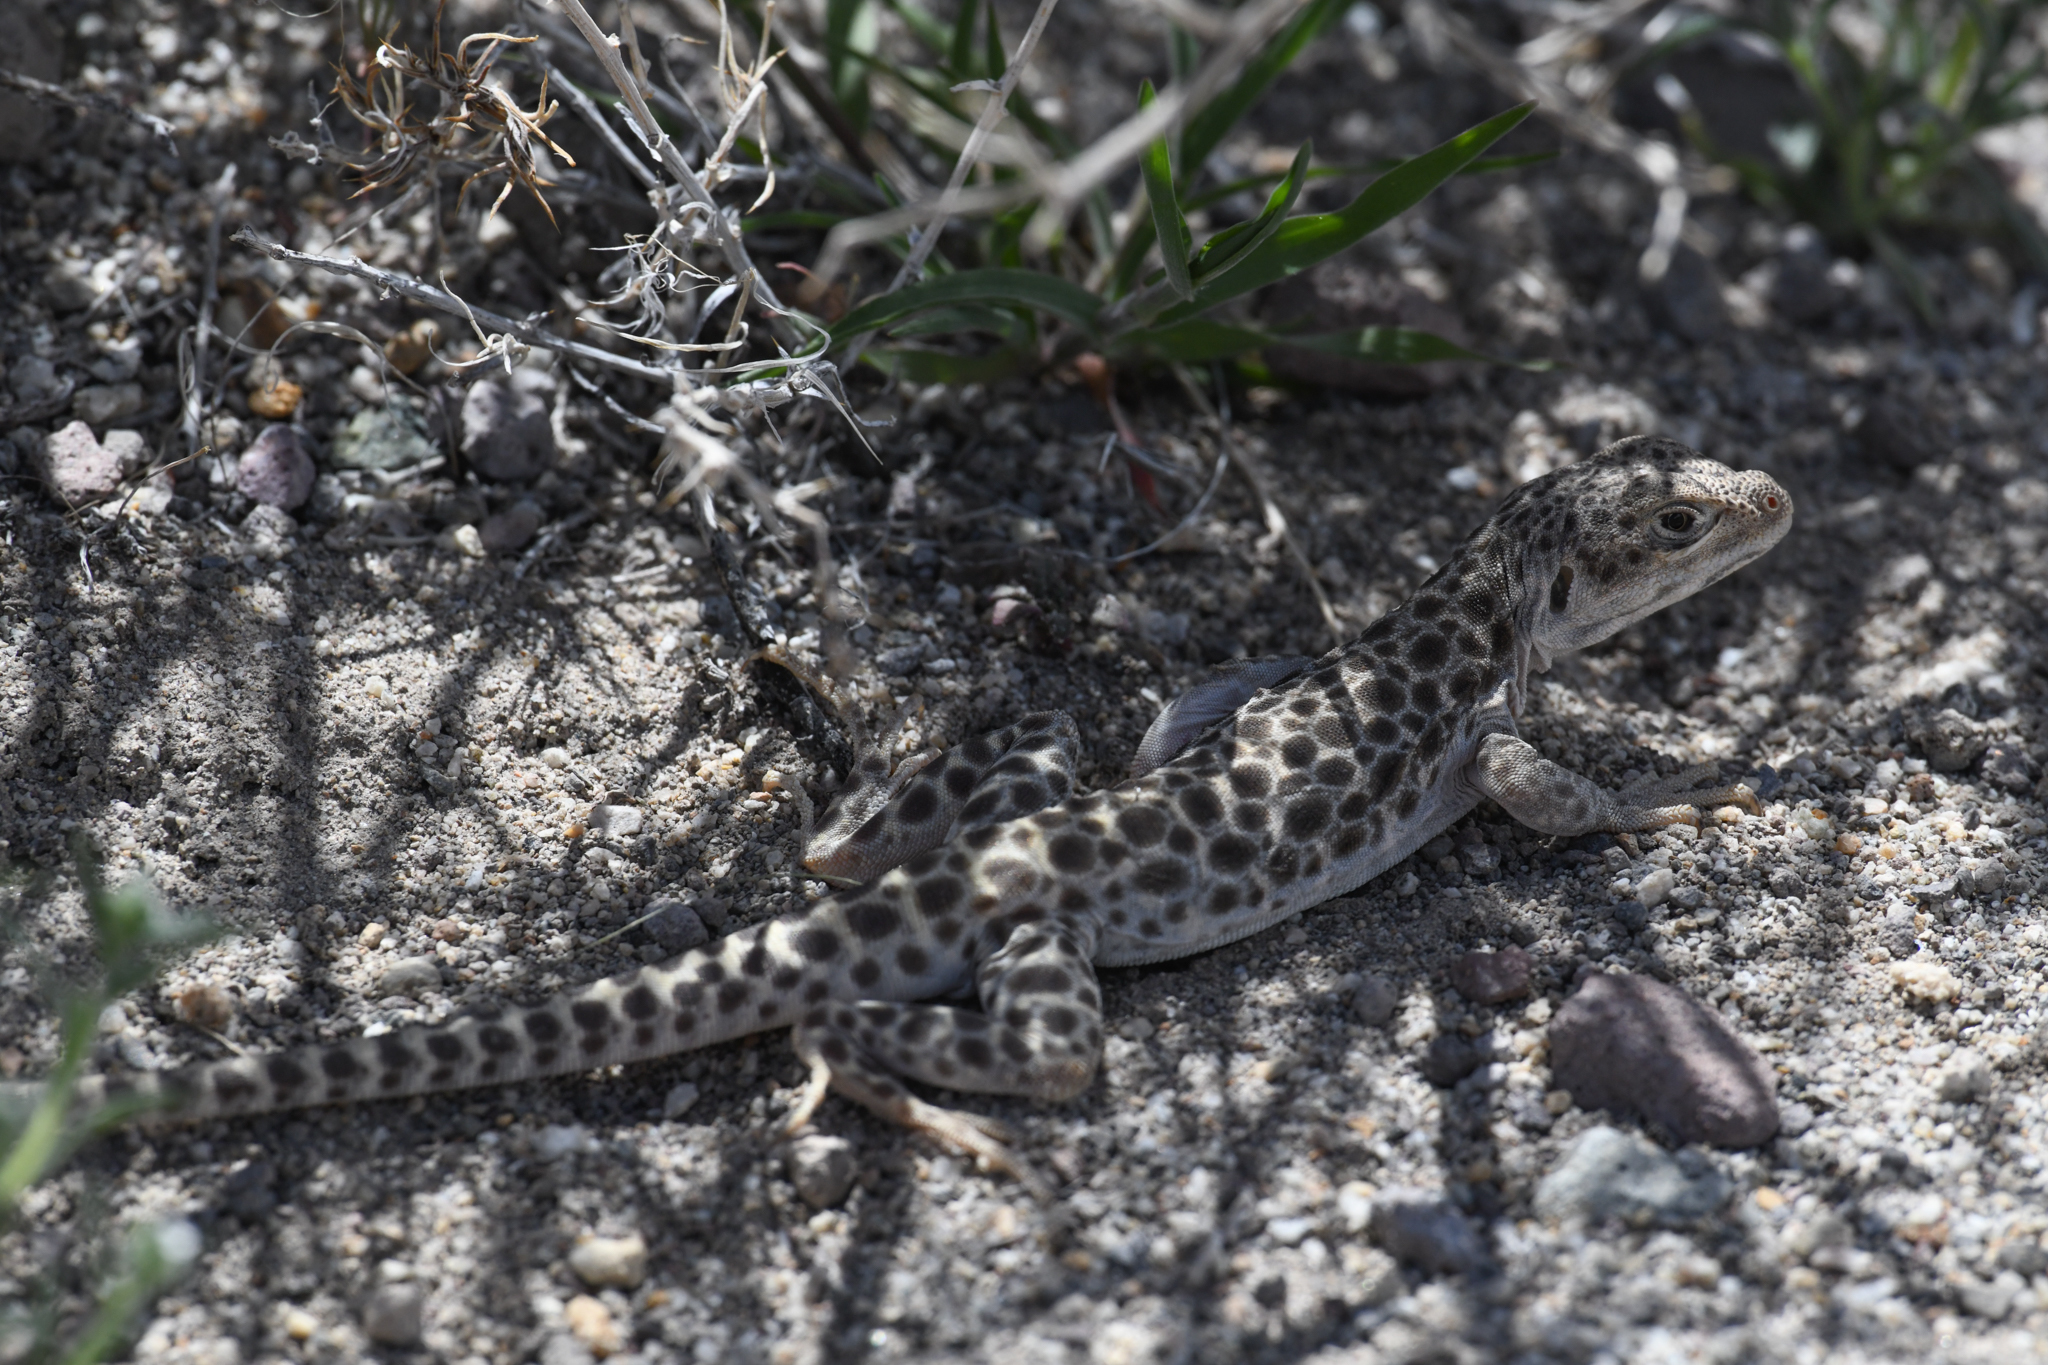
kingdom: Animalia
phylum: Chordata
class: Squamata
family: Crotaphytidae
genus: Gambelia
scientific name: Gambelia wislizenii
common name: Longnose leopard lizard
